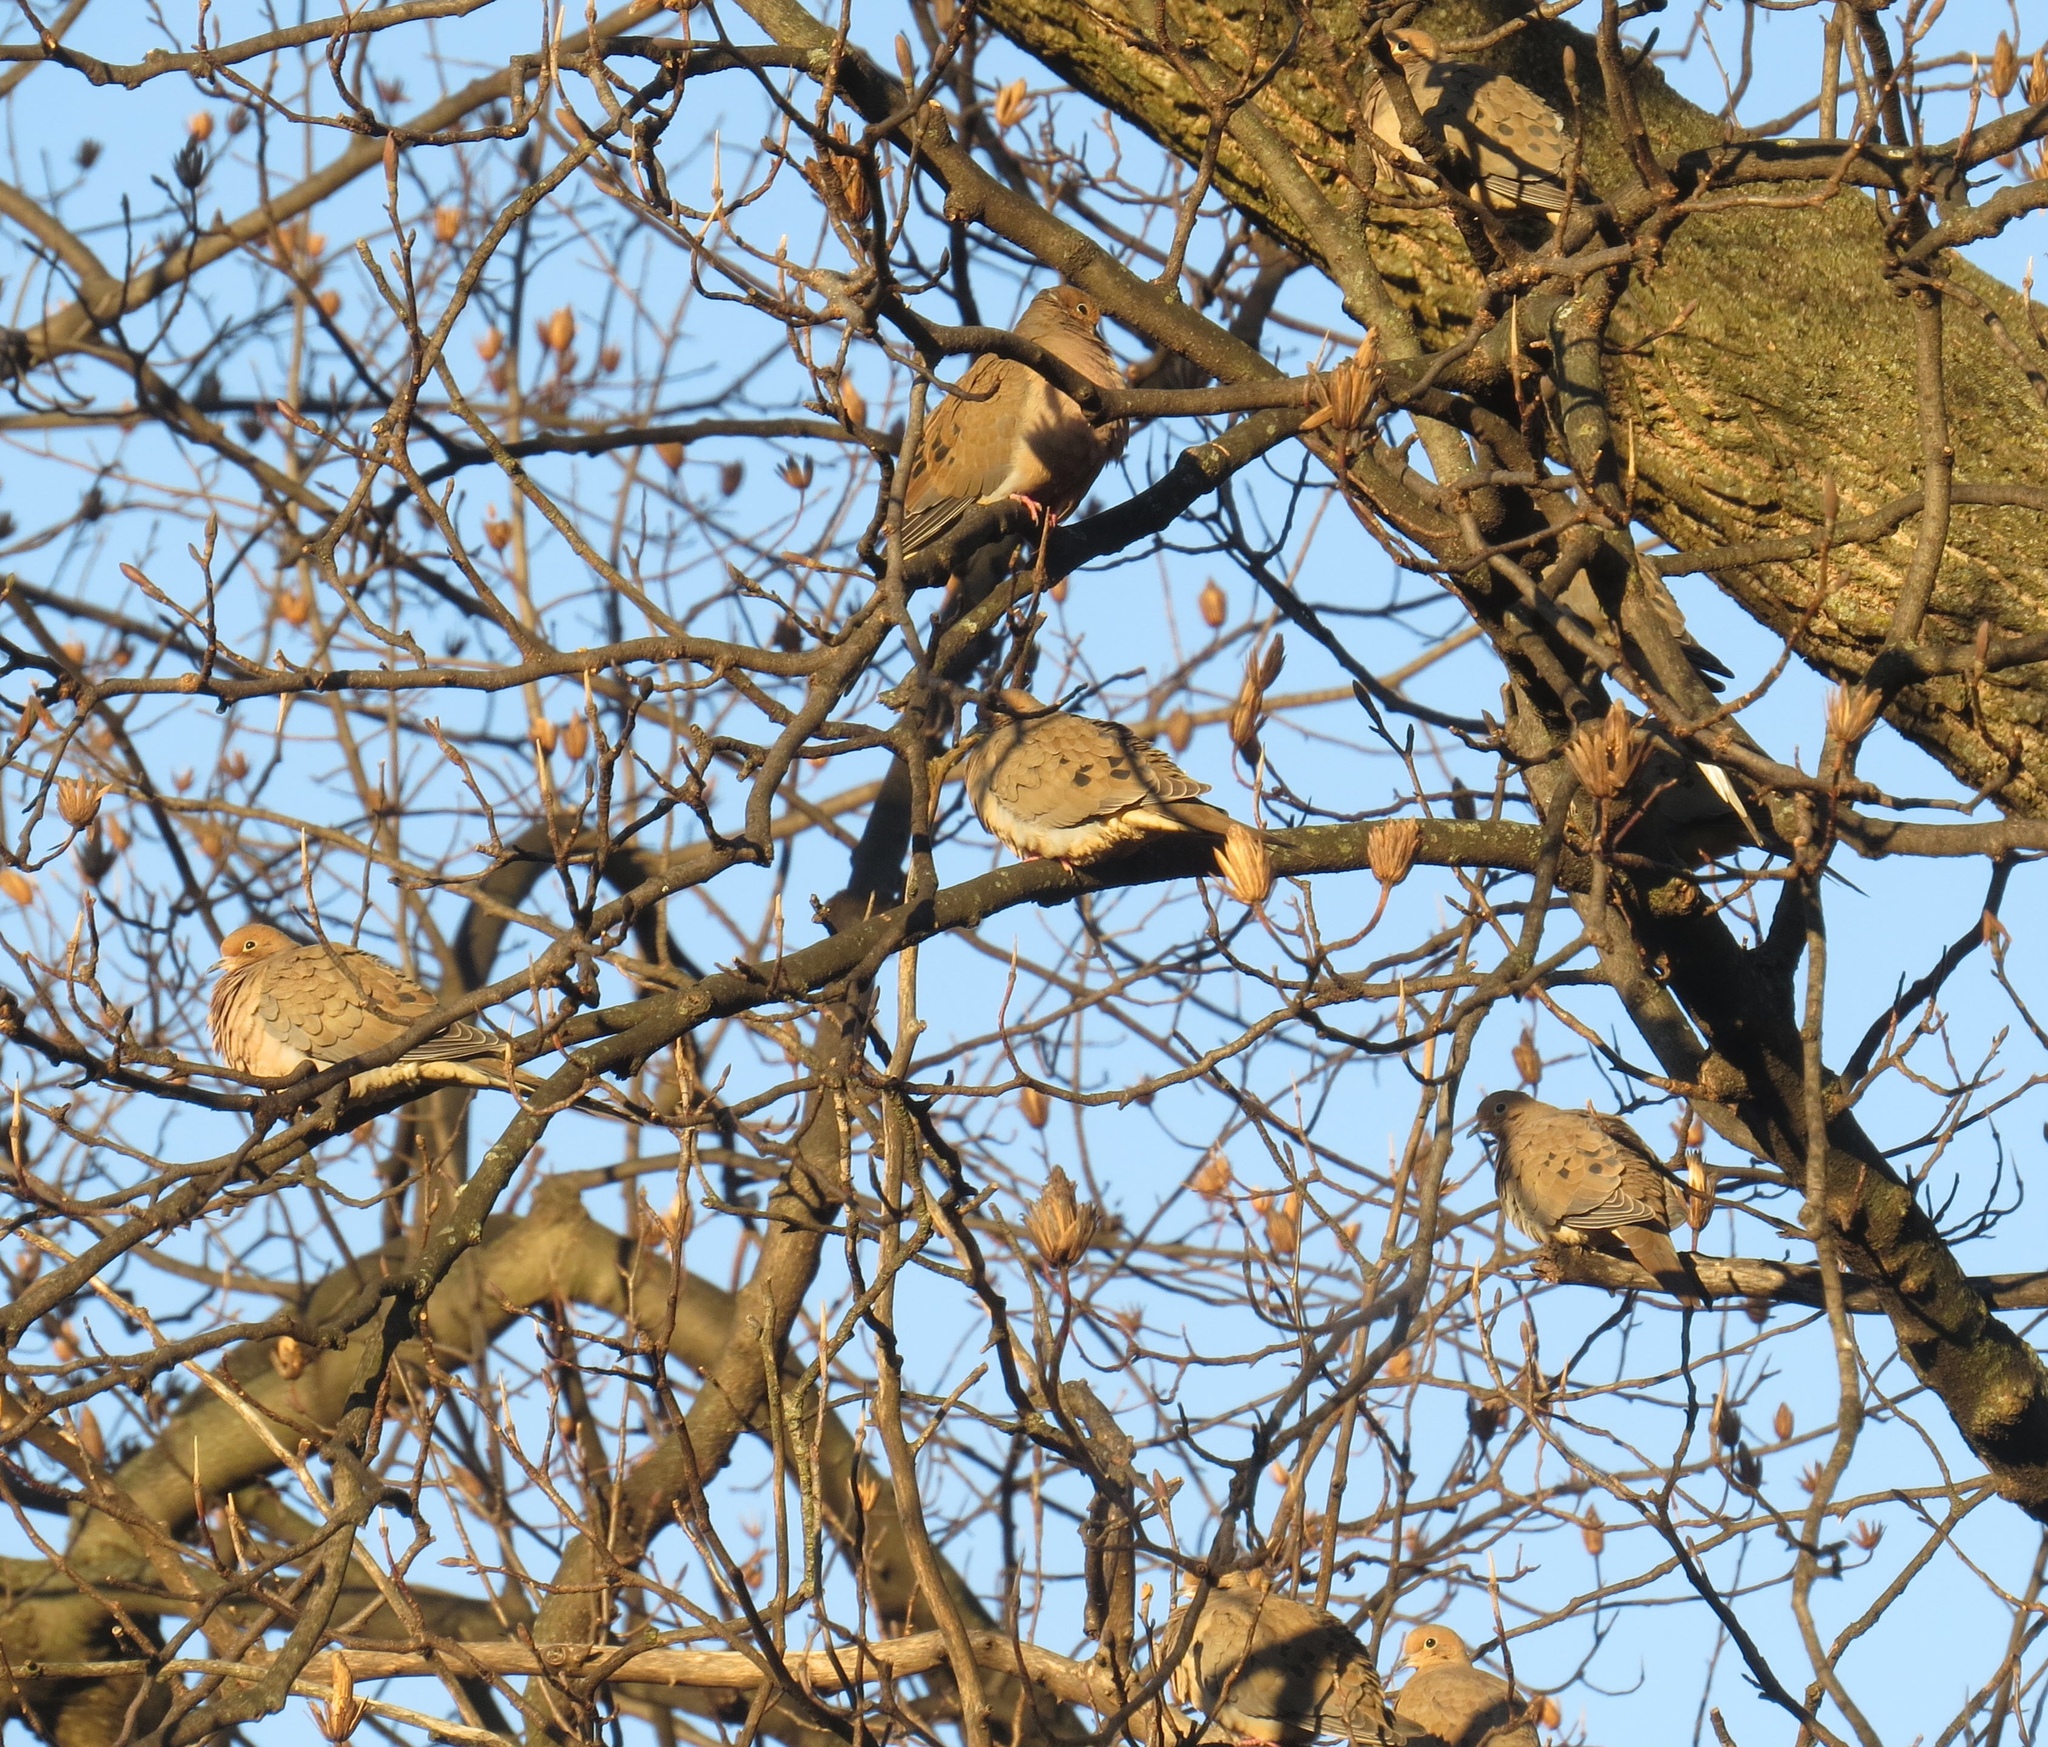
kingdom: Animalia
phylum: Chordata
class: Aves
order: Columbiformes
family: Columbidae
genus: Zenaida
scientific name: Zenaida macroura
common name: Mourning dove
